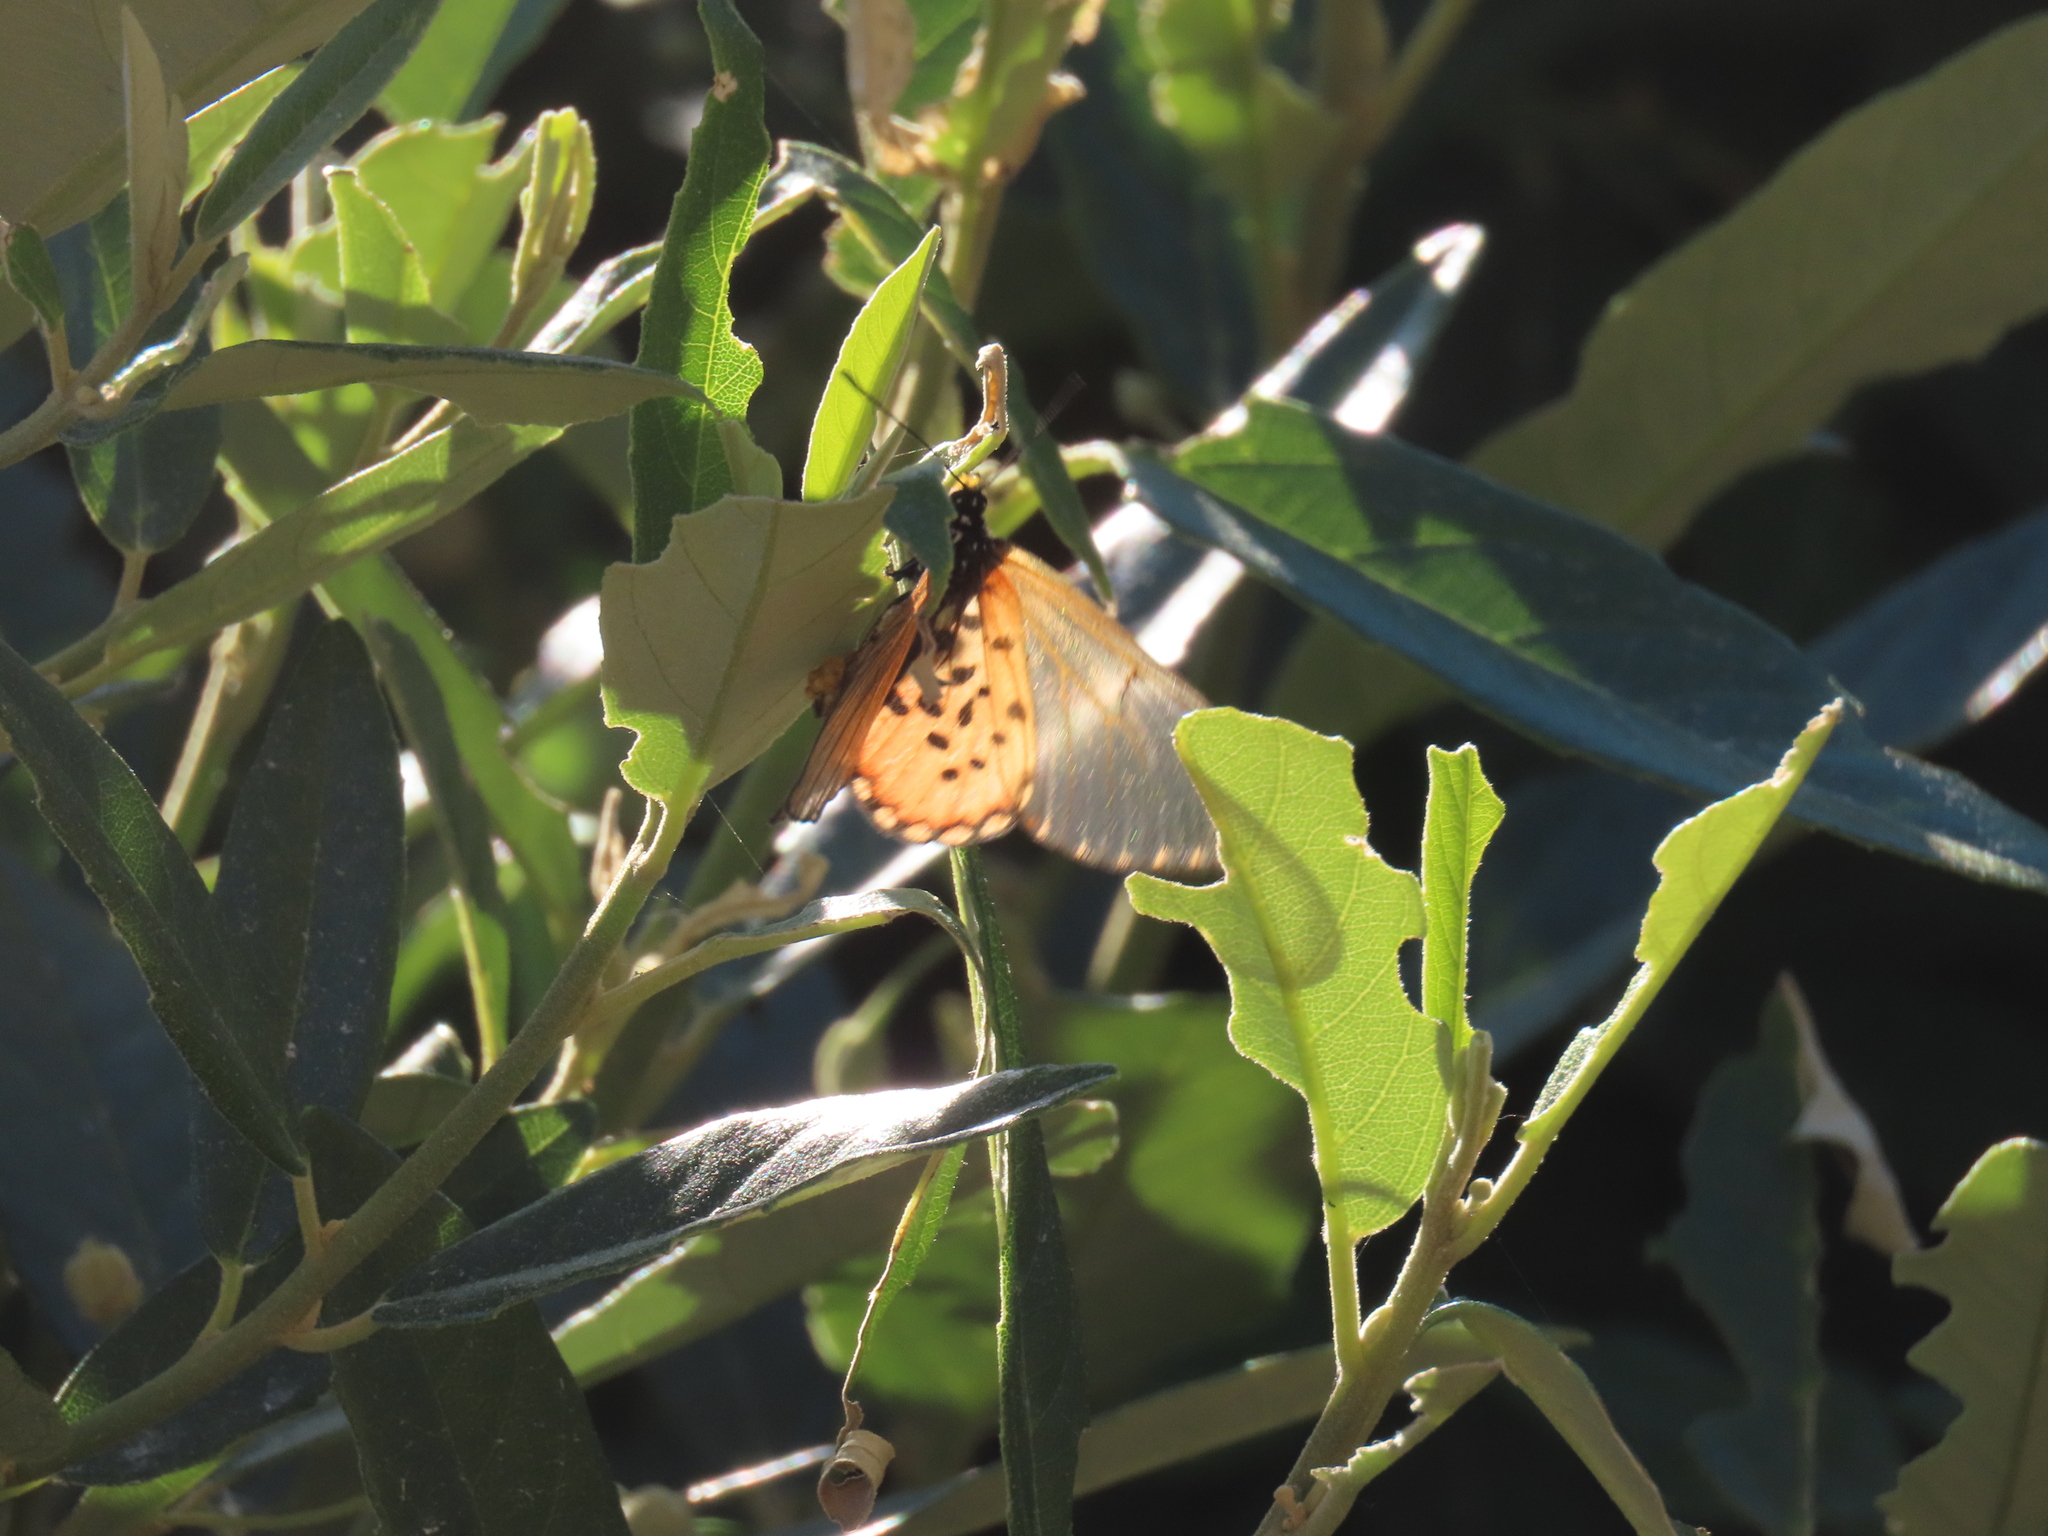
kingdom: Animalia
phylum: Arthropoda
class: Insecta
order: Lepidoptera
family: Nymphalidae
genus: Acraea
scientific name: Acraea horta
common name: Garden acraea
